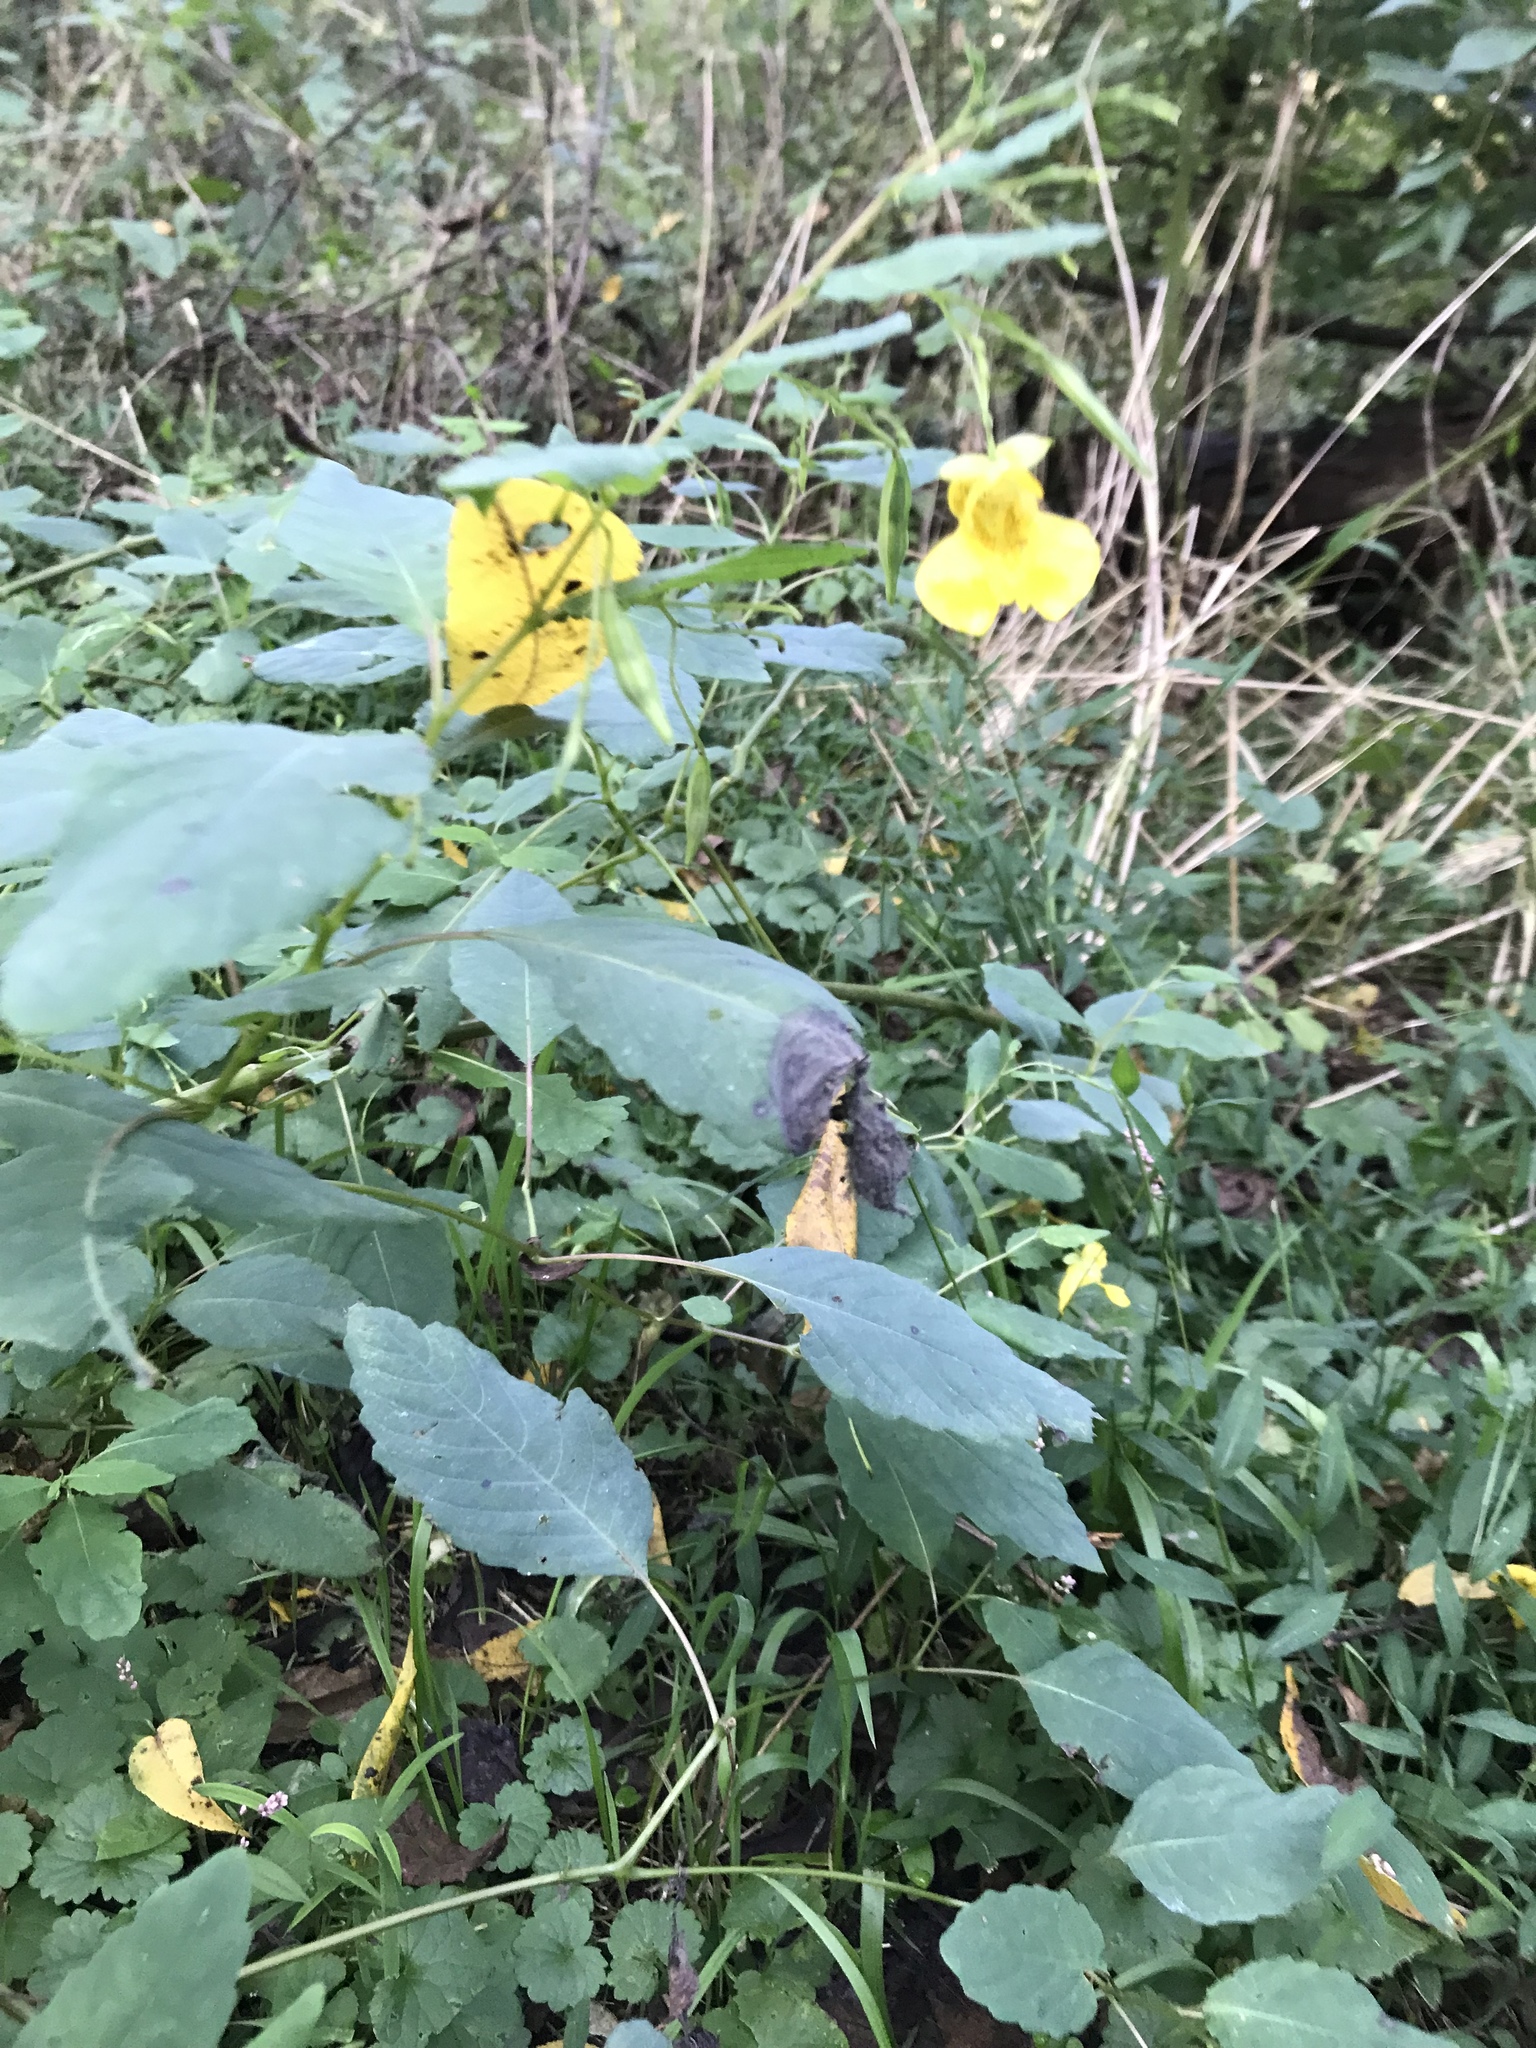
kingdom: Plantae
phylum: Tracheophyta
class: Magnoliopsida
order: Ericales
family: Balsaminaceae
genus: Impatiens
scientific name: Impatiens pallida
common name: Pale snapweed
